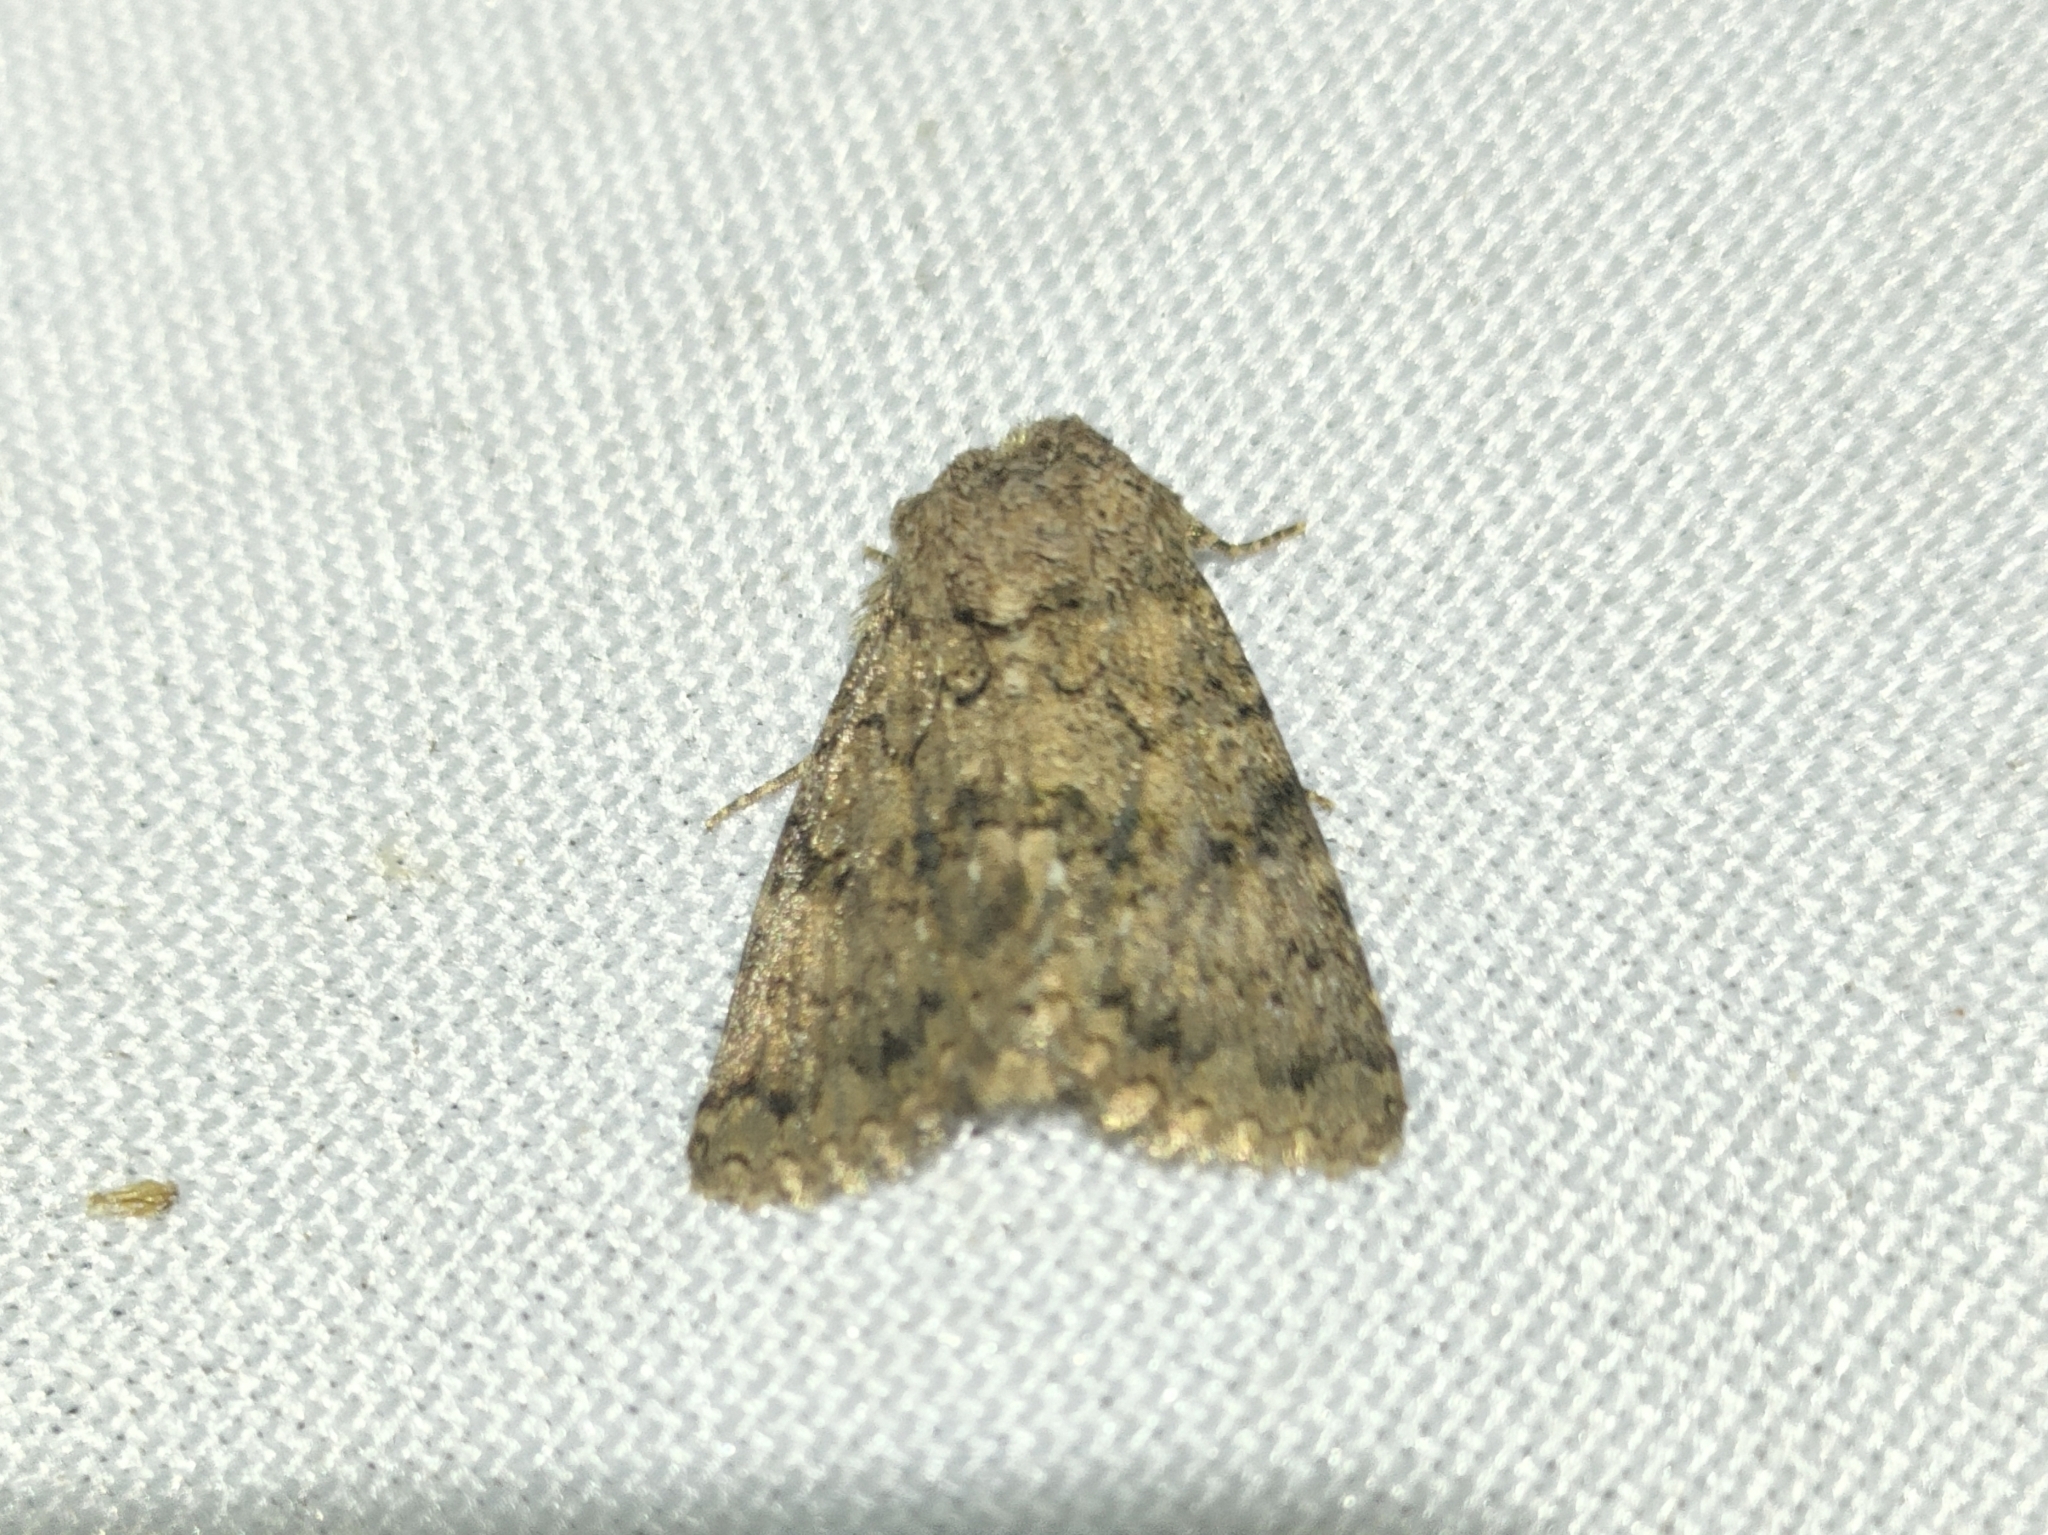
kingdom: Animalia
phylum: Arthropoda
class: Insecta
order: Lepidoptera
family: Noctuidae
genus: Recoropha
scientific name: Recoropha canteneri
